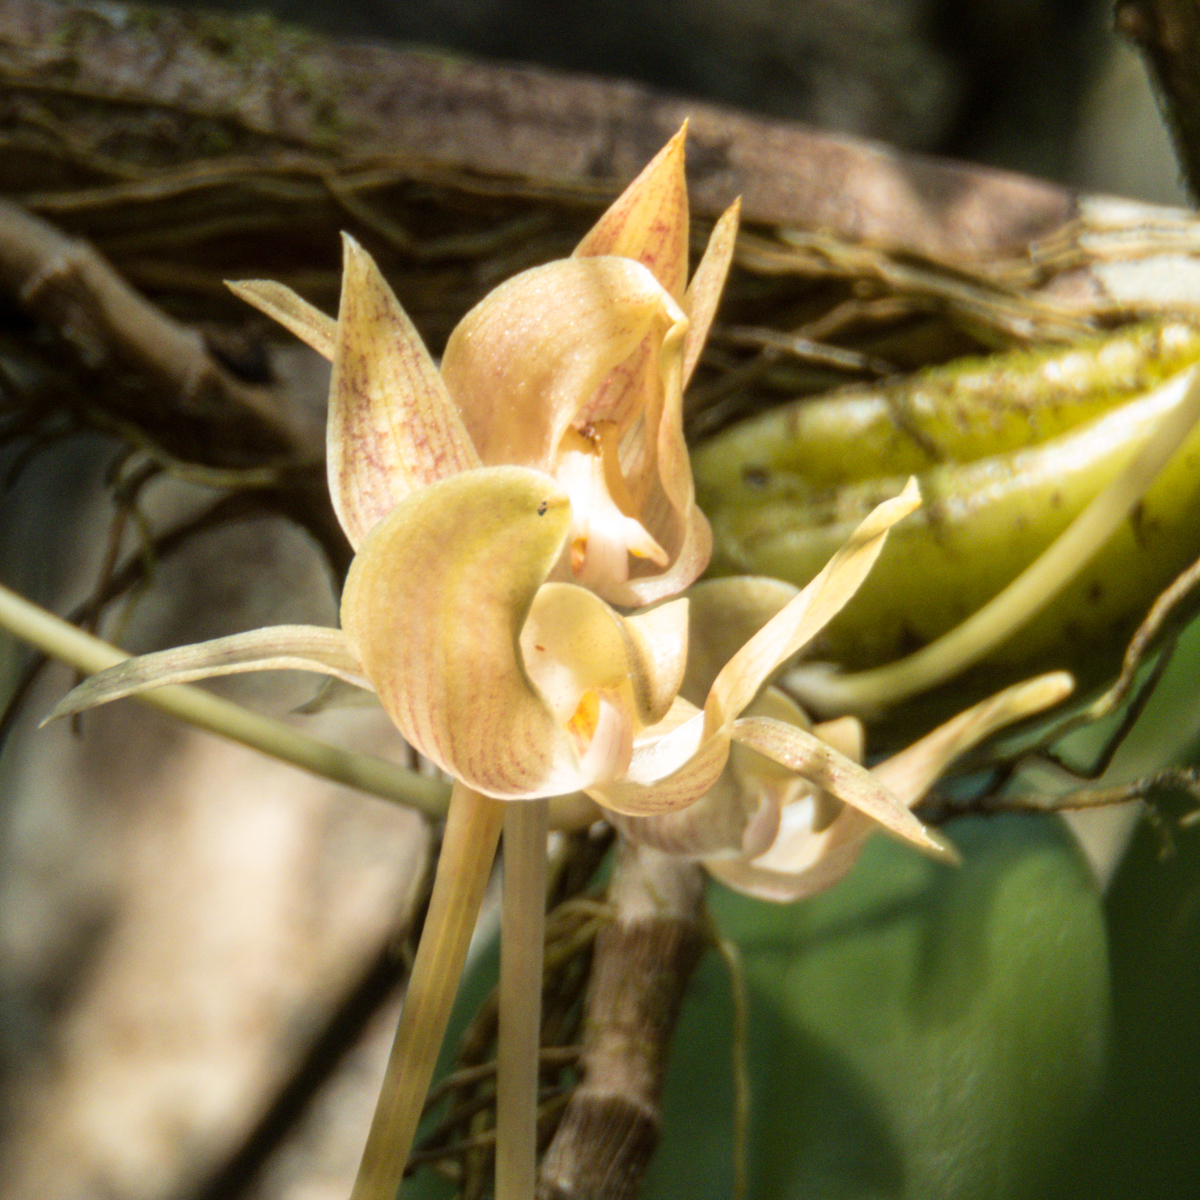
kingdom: Plantae
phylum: Tracheophyta
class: Liliopsida
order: Asparagales
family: Orchidaceae
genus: Bulbophyllum
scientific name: Bulbophyllum orectopetalum
